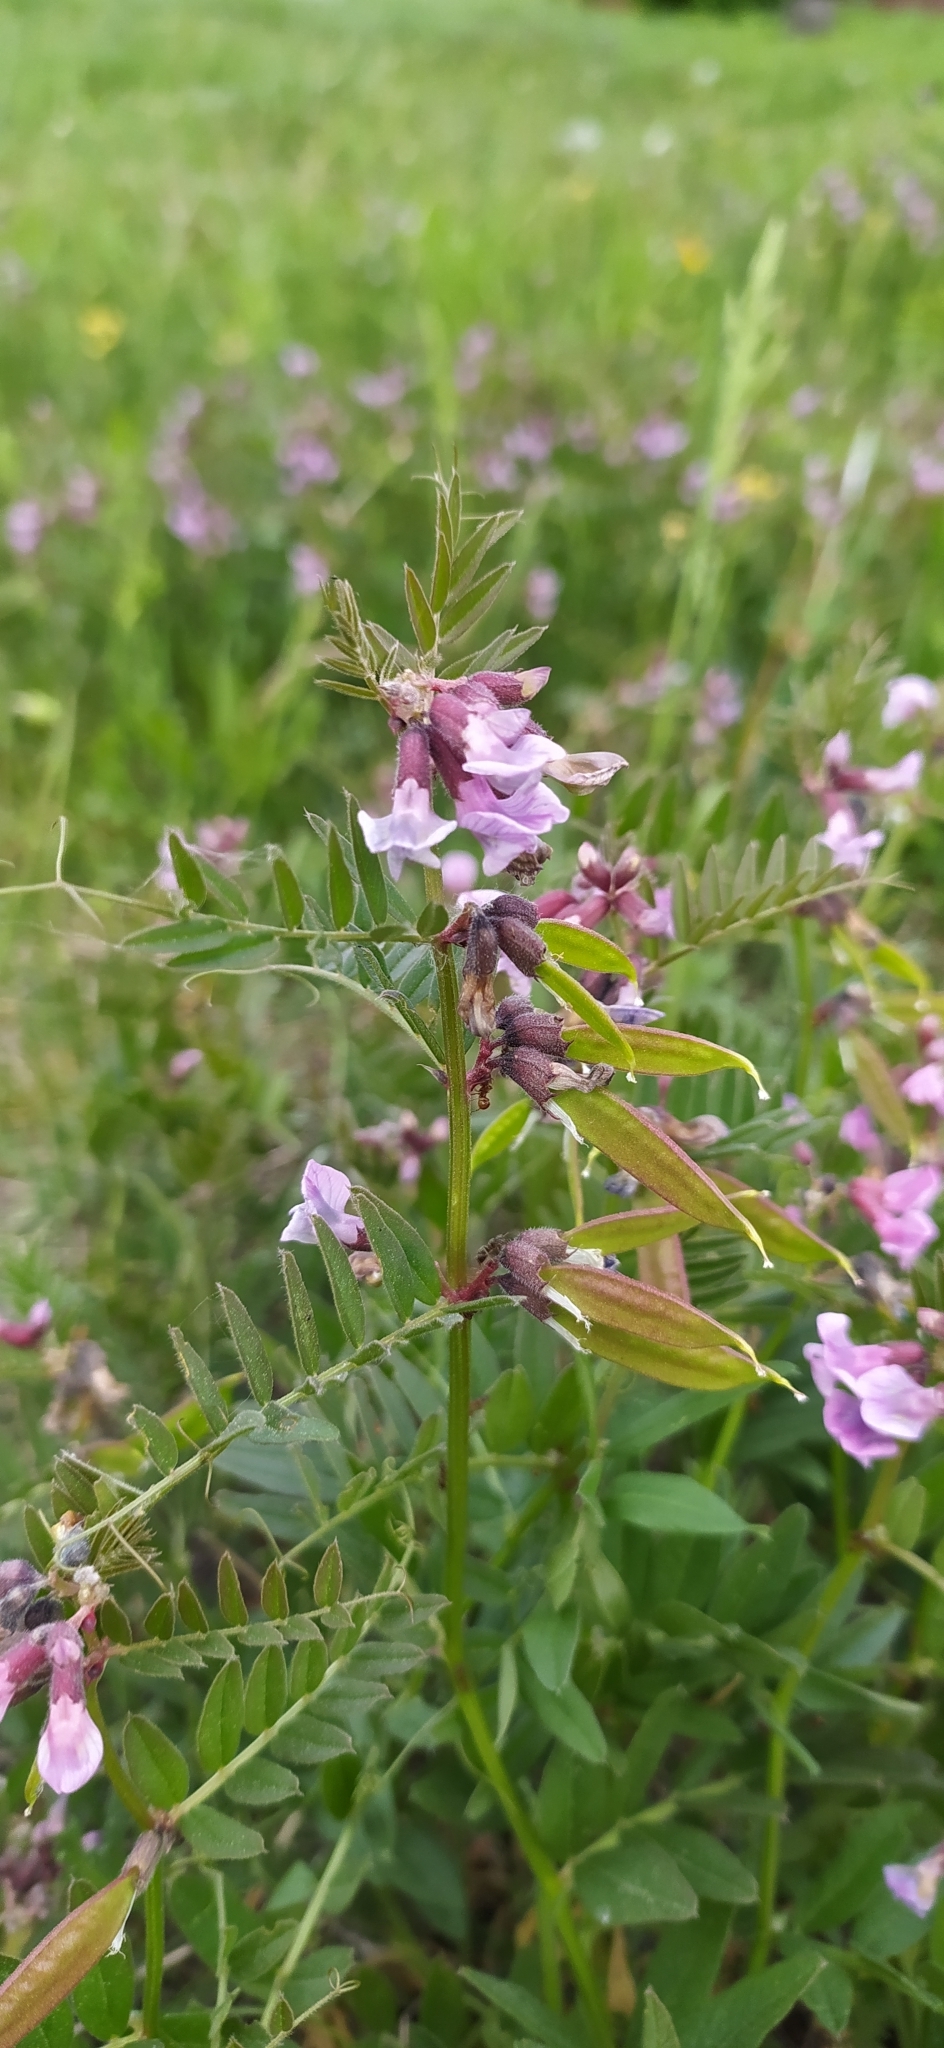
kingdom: Plantae
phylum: Tracheophyta
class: Magnoliopsida
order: Fabales
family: Fabaceae
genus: Vicia
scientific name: Vicia sepium
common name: Bush vetch
